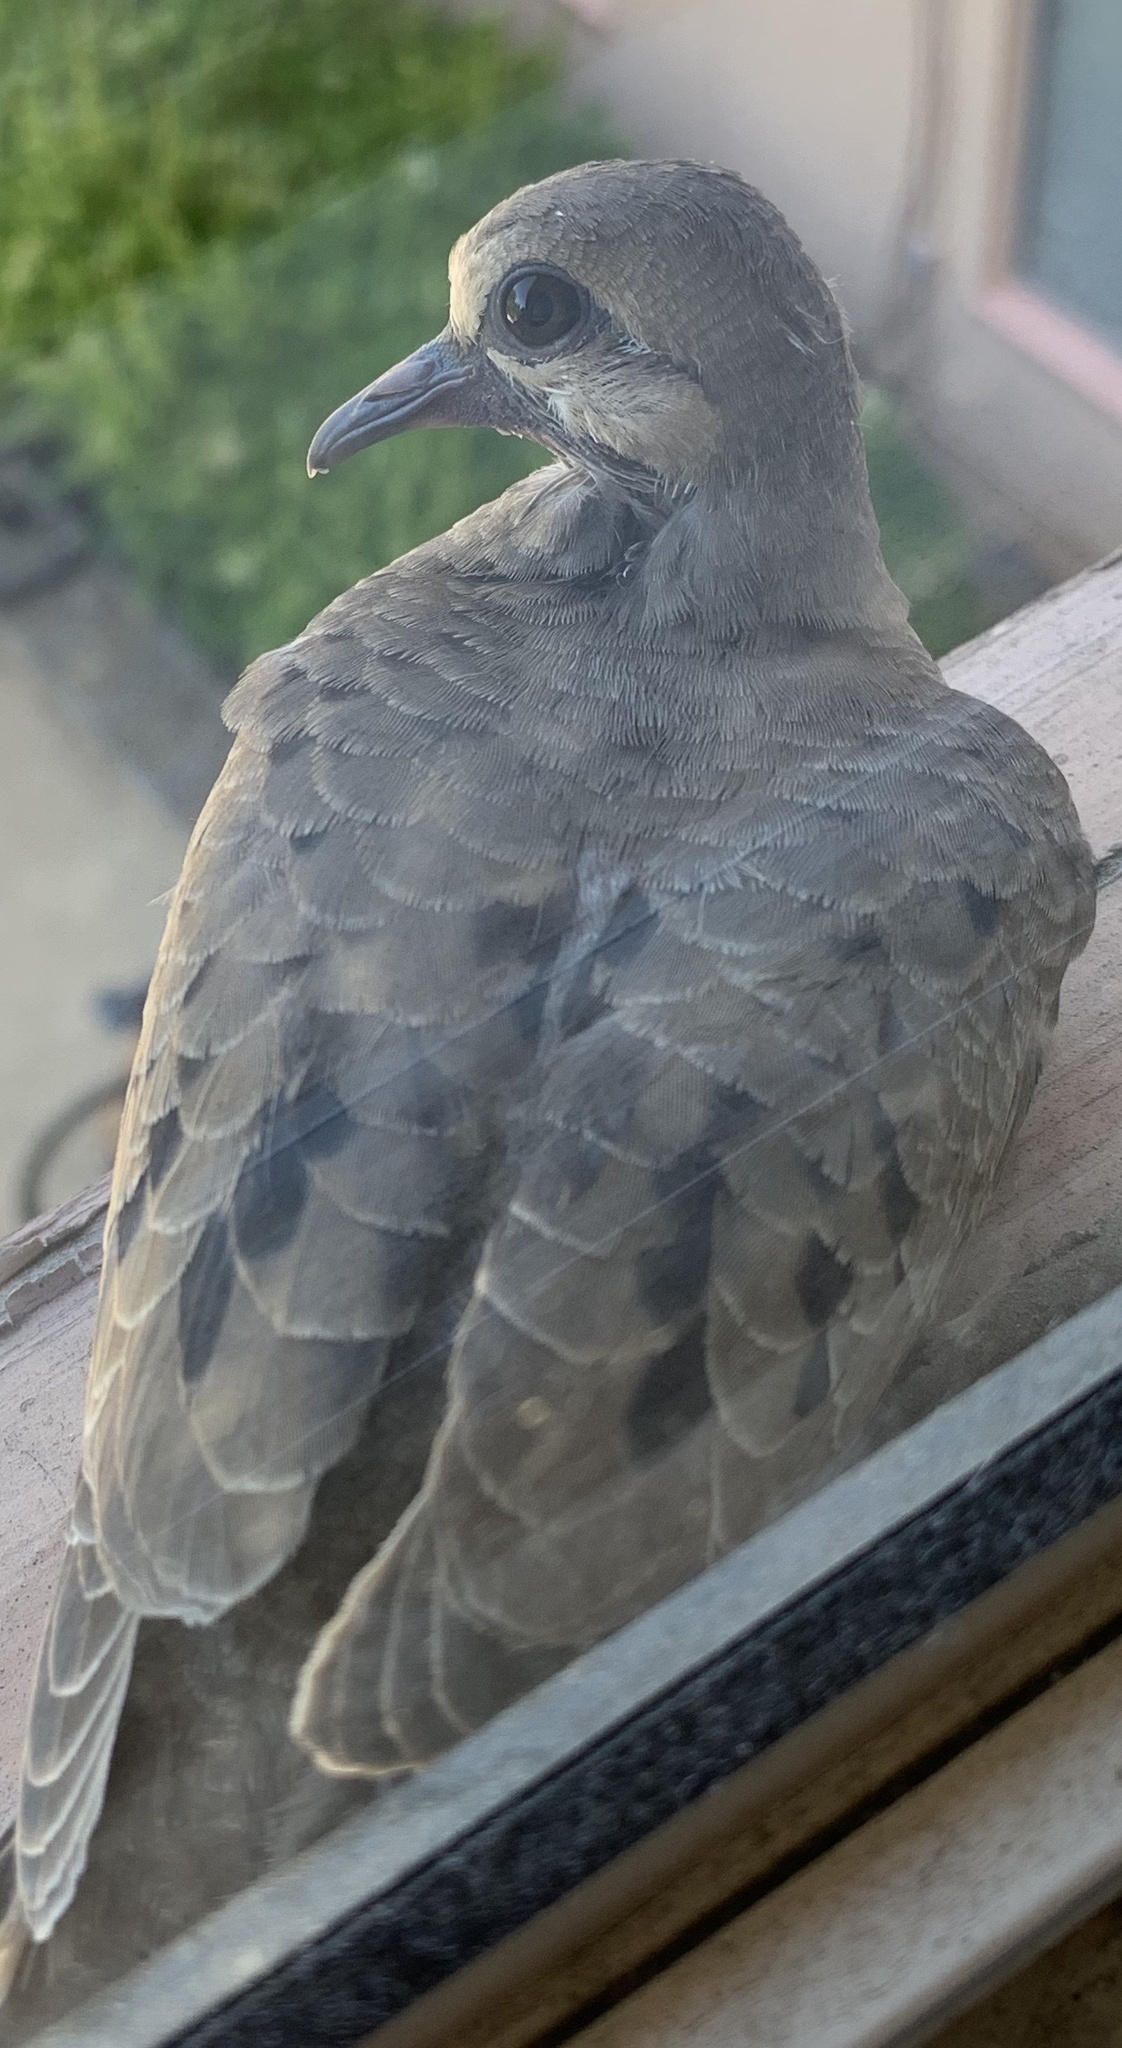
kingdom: Animalia
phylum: Chordata
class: Aves
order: Columbiformes
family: Columbidae
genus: Zenaida
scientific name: Zenaida macroura
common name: Mourning dove
